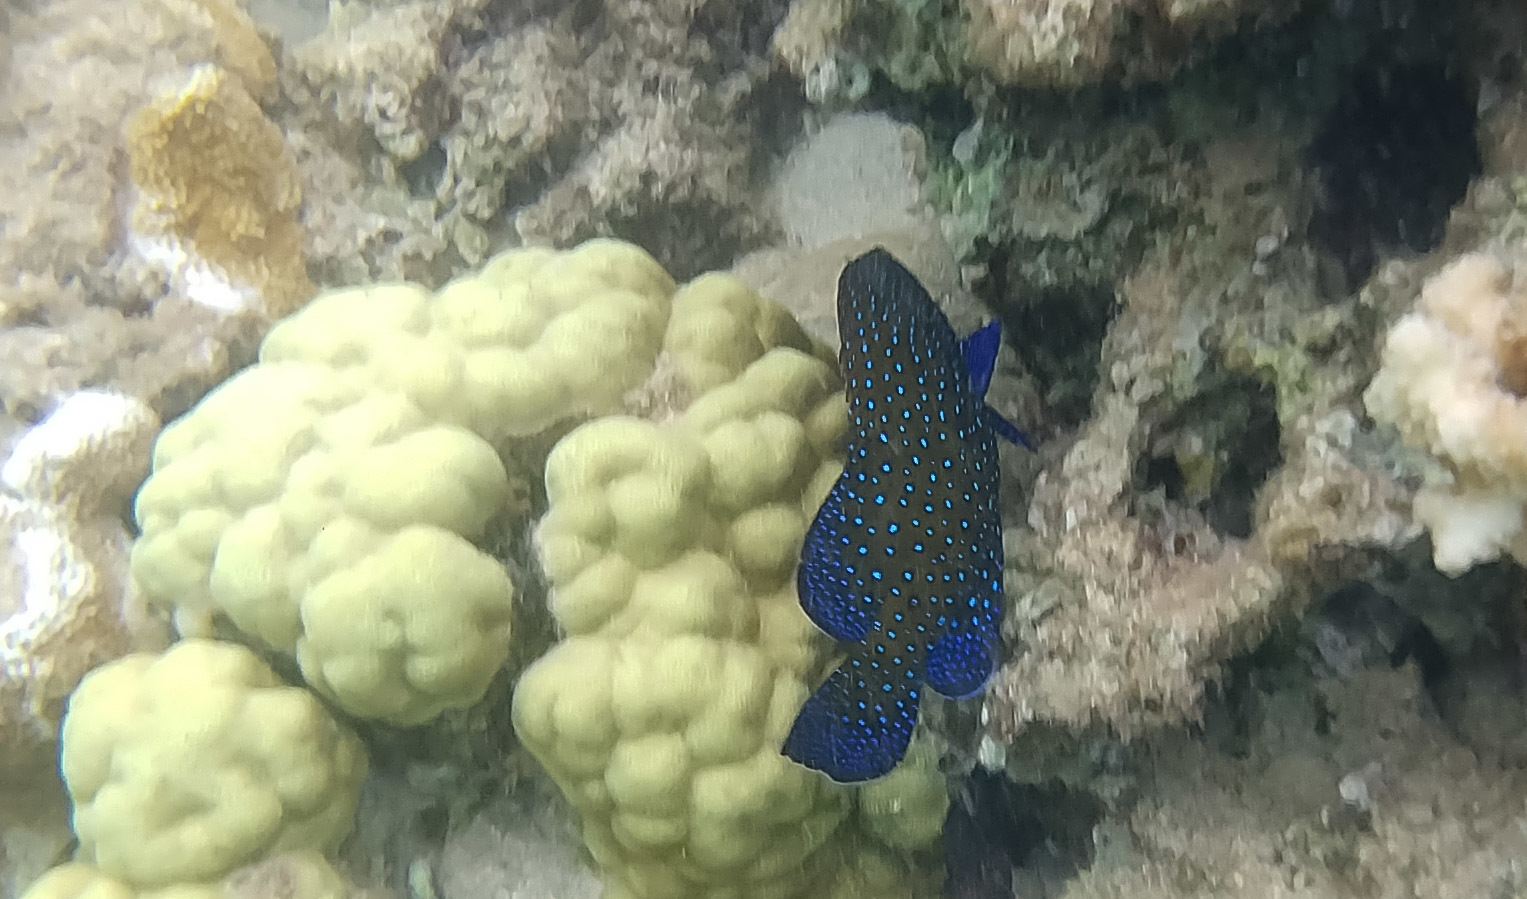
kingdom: Animalia
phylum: Chordata
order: Perciformes
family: Serranidae
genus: Cephalopholis
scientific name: Cephalopholis argus
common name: Peacock grouper
